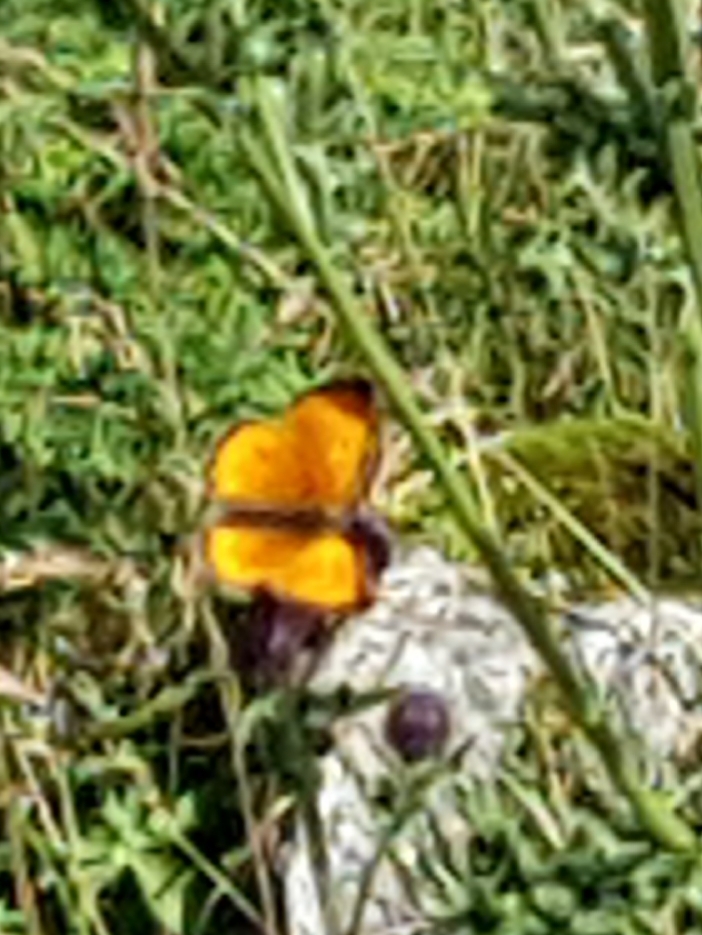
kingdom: Animalia
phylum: Arthropoda
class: Insecta
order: Lepidoptera
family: Lycaenidae
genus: Lycaena
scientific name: Lycaena virgaureae
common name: Scarce copper
